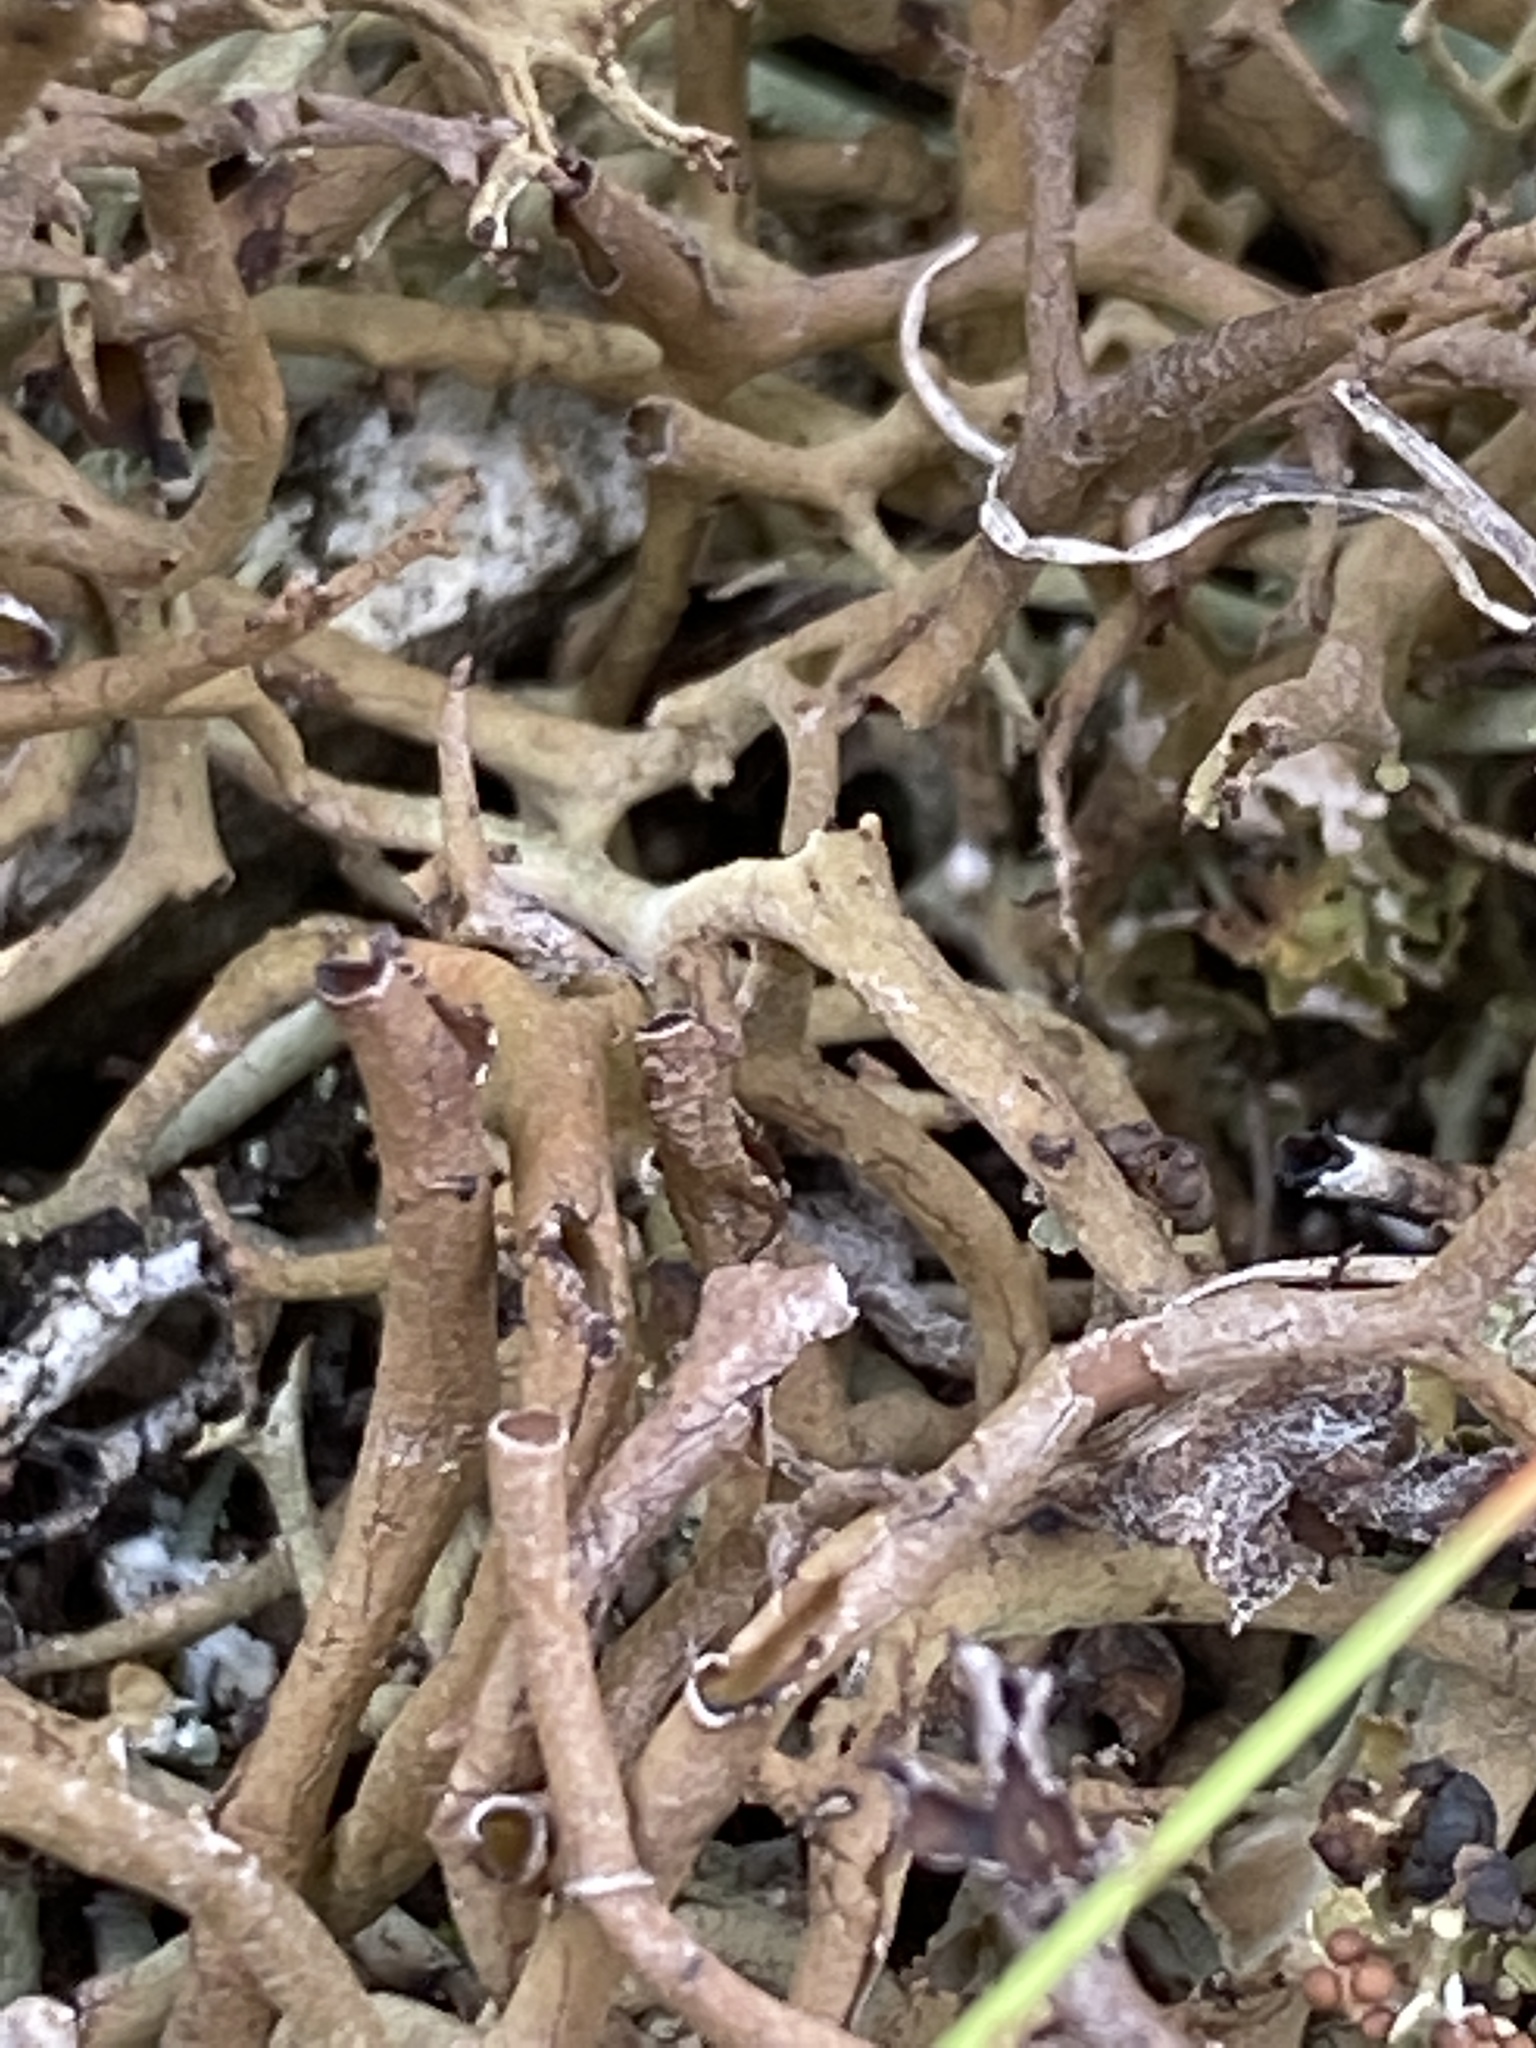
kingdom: Fungi
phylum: Ascomycota
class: Lecanoromycetes
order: Lecanorales
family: Parmeliaceae
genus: Cetraria
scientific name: Cetraria islandica
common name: Iceland lichen
